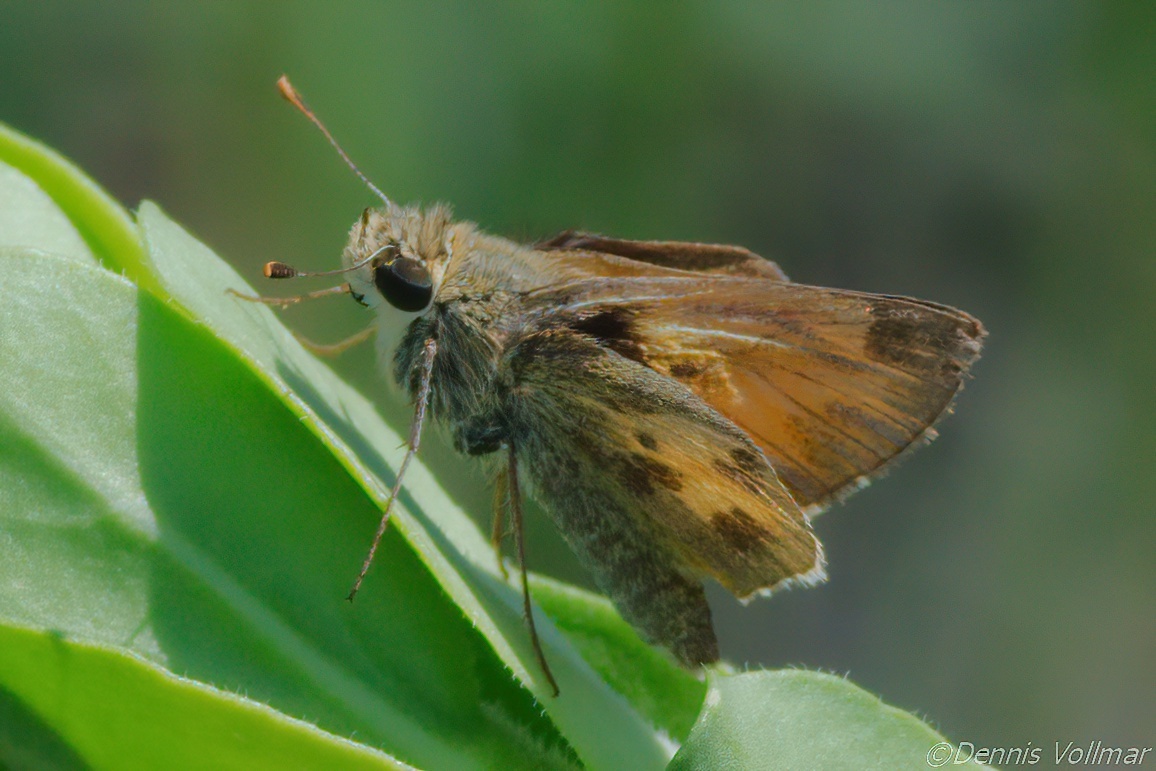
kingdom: Animalia
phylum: Arthropoda
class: Insecta
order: Lepidoptera
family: Hesperiidae
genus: Polites
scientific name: Polites vibex
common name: Whirlabout
